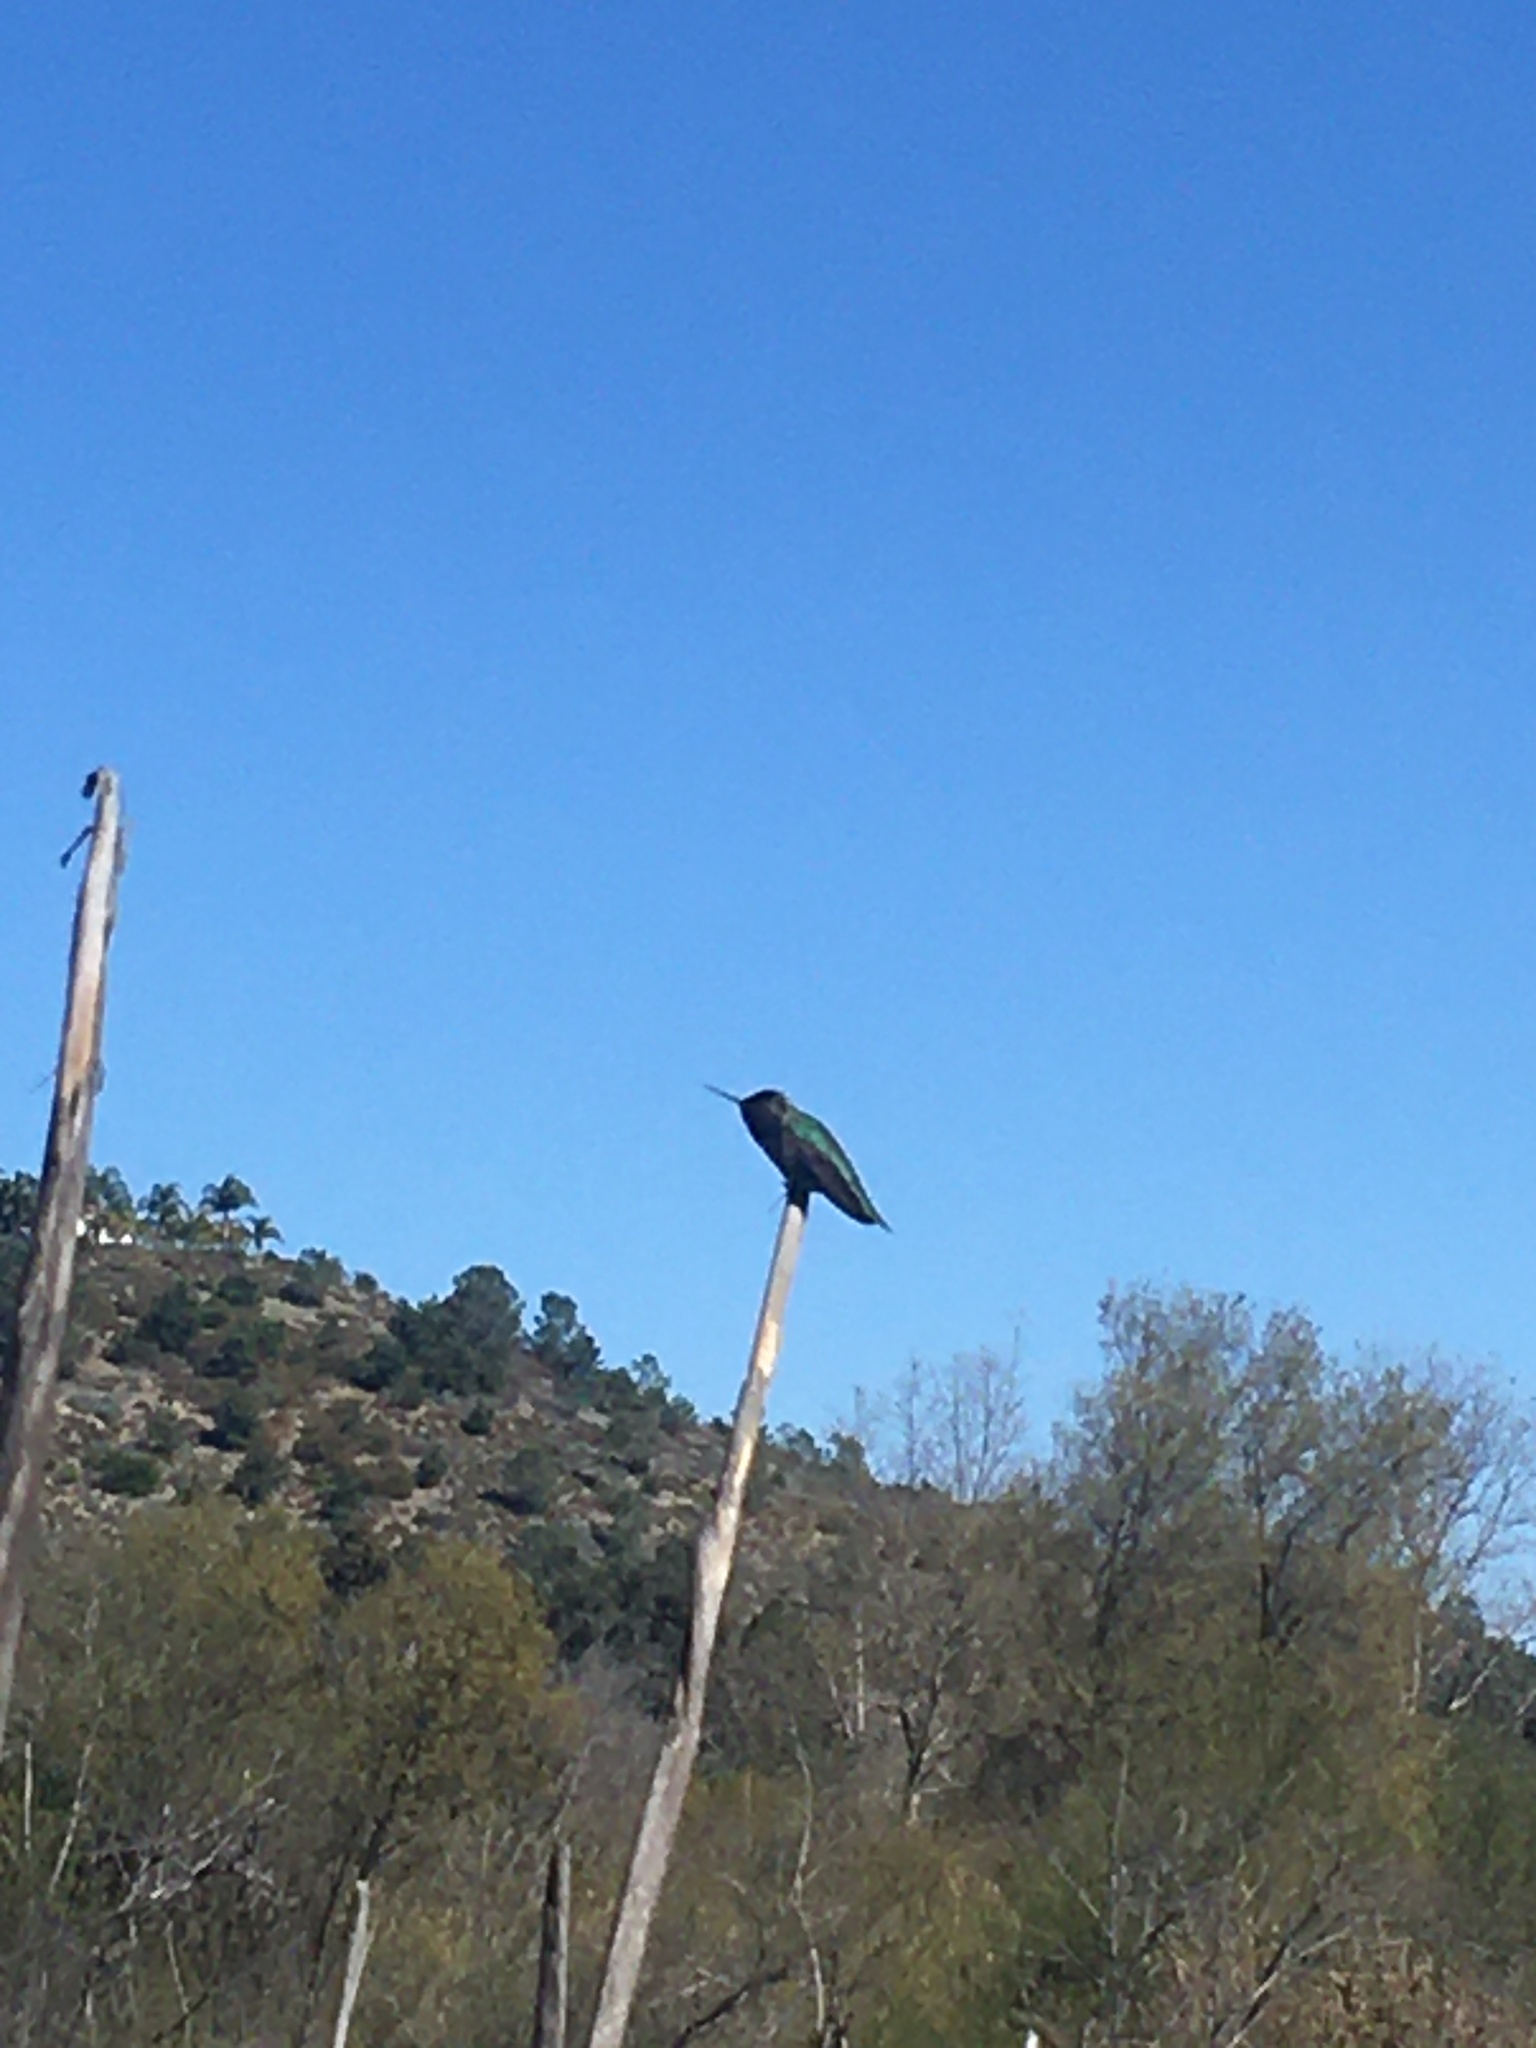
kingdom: Animalia
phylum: Chordata
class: Aves
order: Apodiformes
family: Trochilidae
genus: Calypte
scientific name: Calypte anna
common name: Anna's hummingbird
